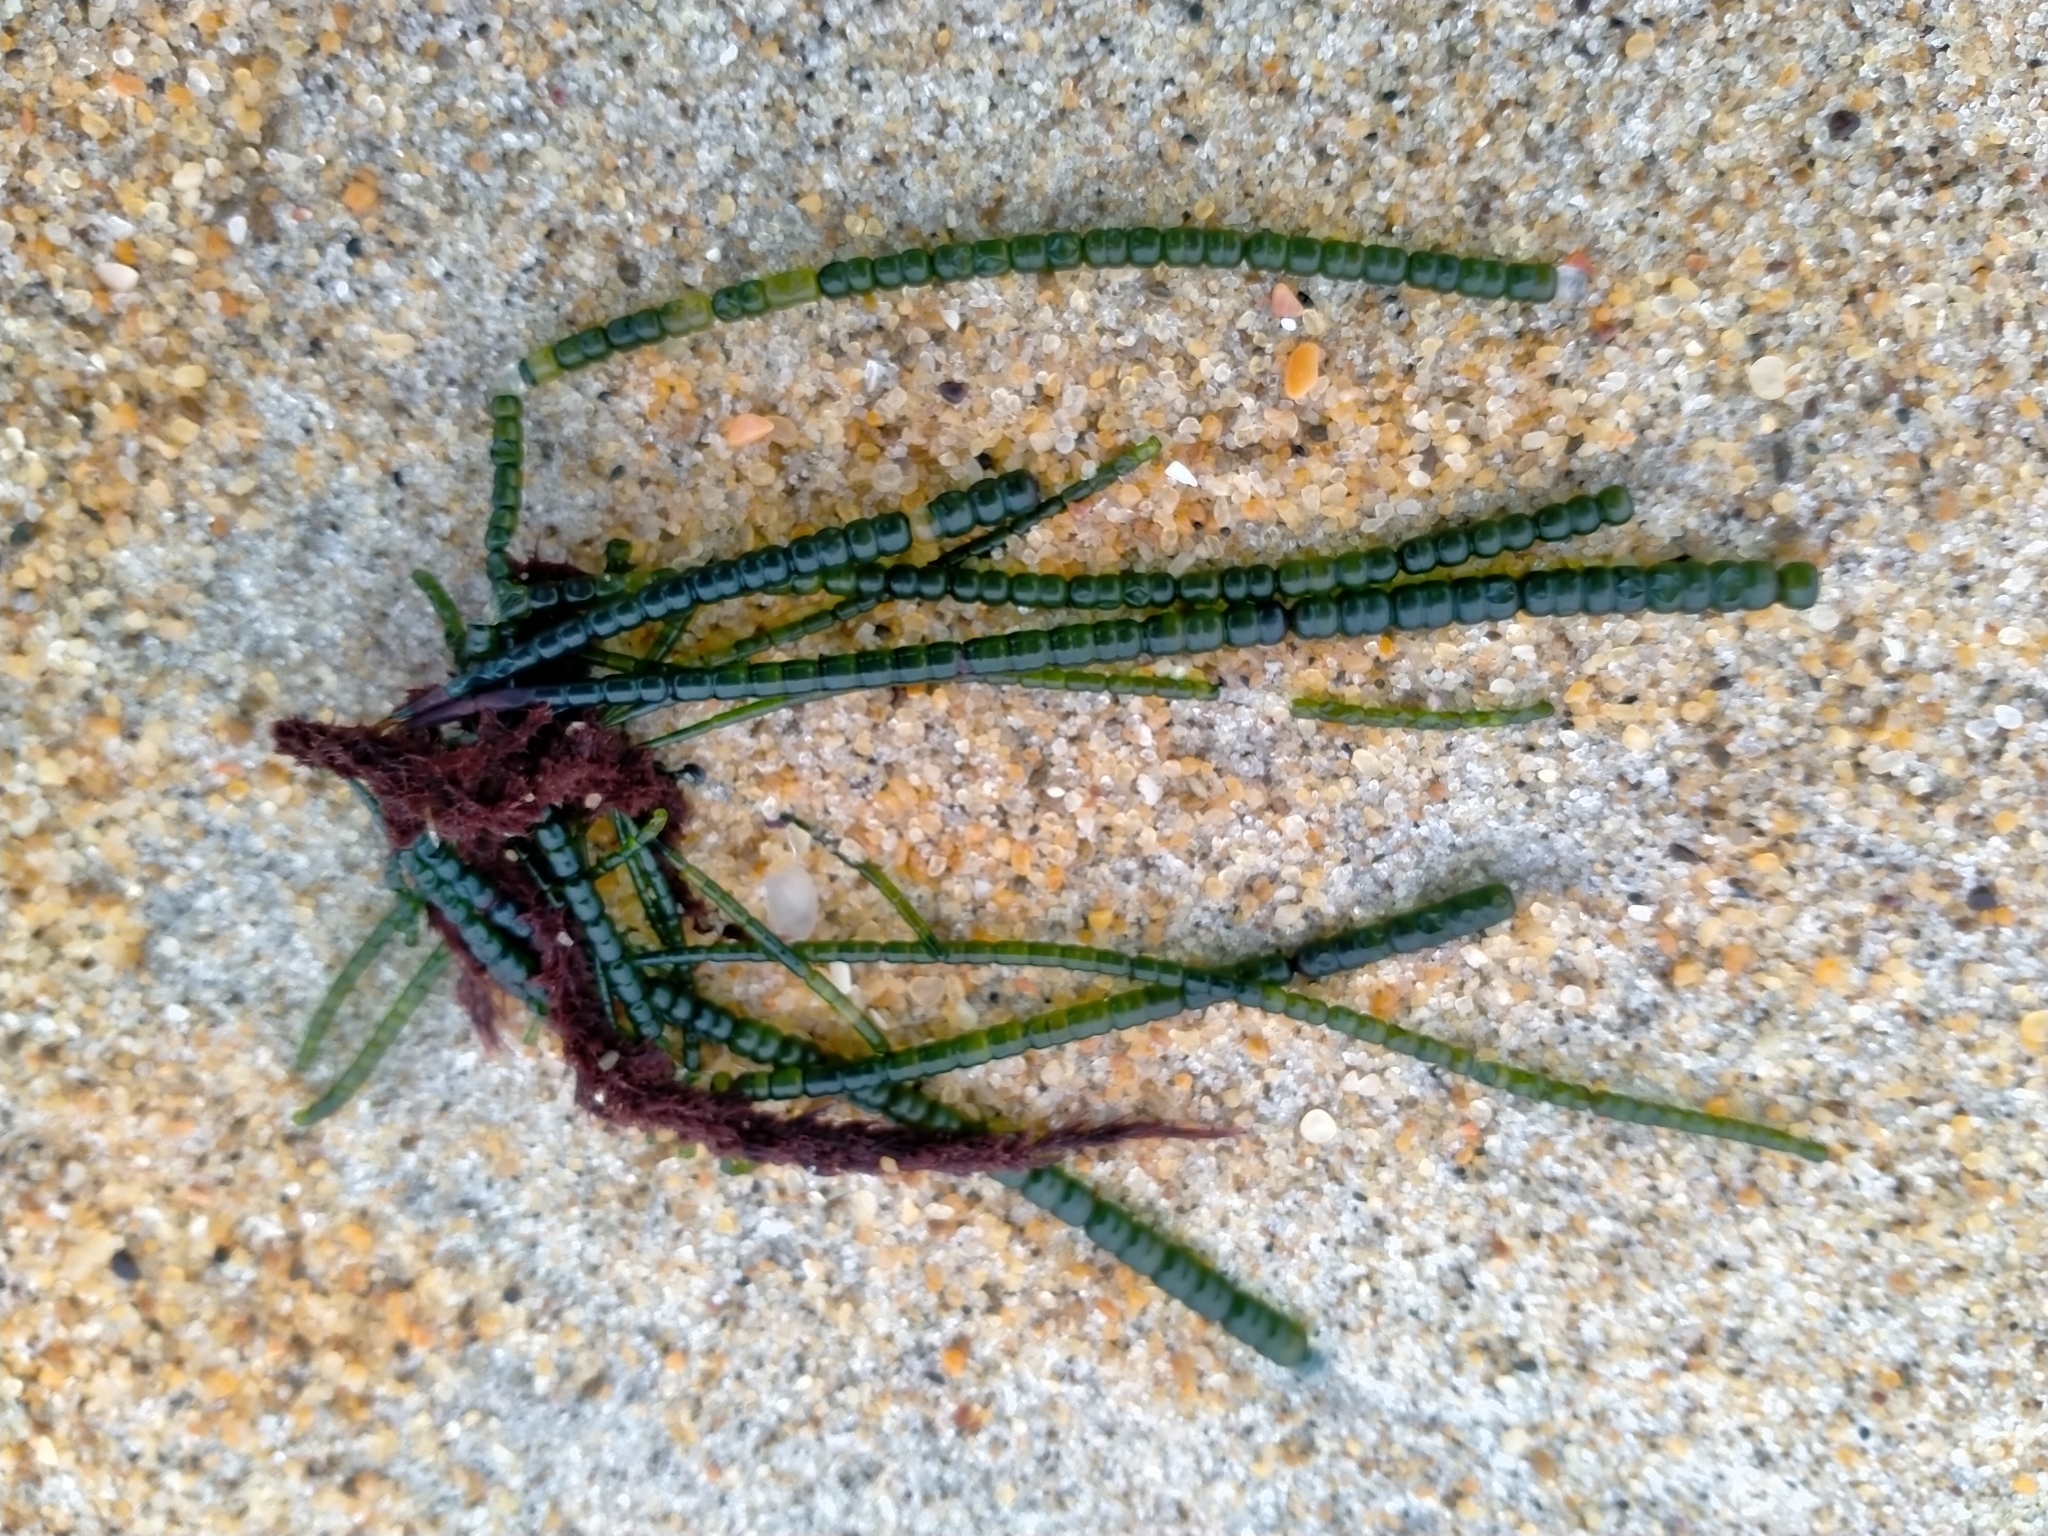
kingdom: Plantae
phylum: Chlorophyta
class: Ulvophyceae
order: Cladophorales
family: Cladophoraceae
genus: Chaetomorpha
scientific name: Chaetomorpha coliformis
